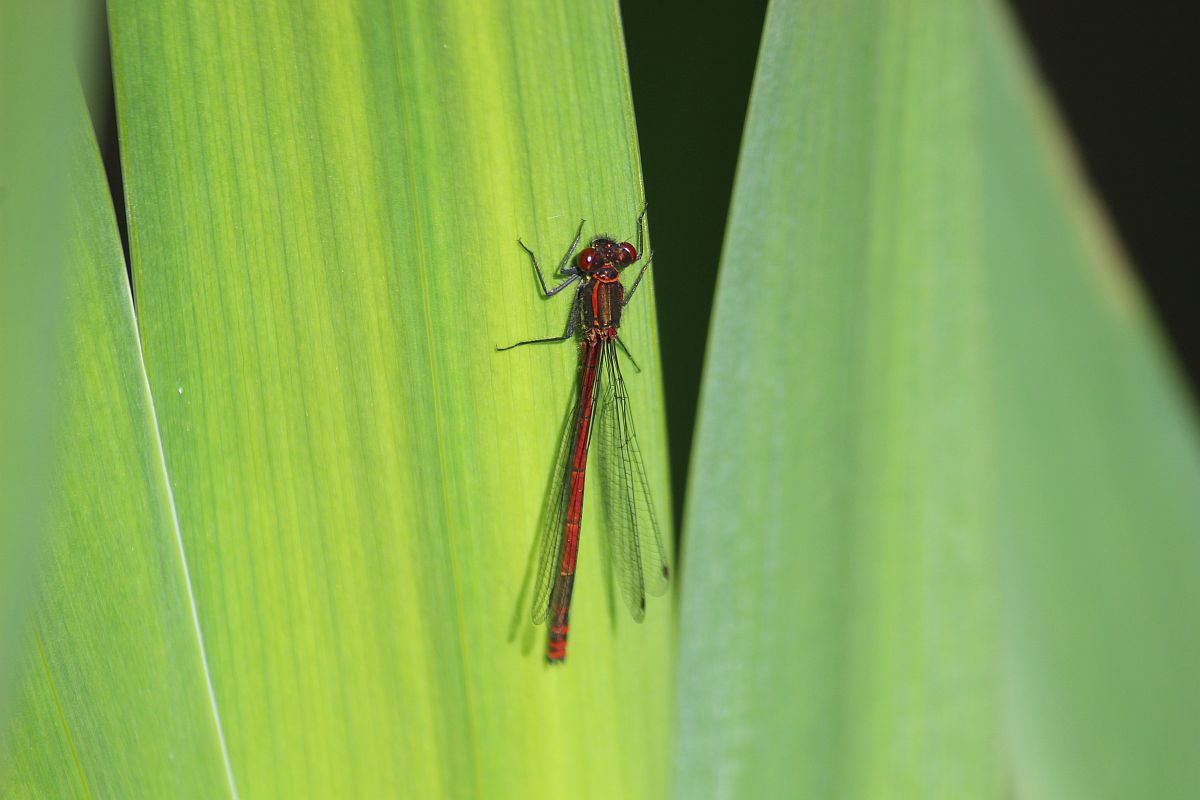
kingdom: Animalia
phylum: Arthropoda
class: Insecta
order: Odonata
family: Coenagrionidae
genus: Pyrrhosoma
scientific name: Pyrrhosoma nymphula
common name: Large red damsel
